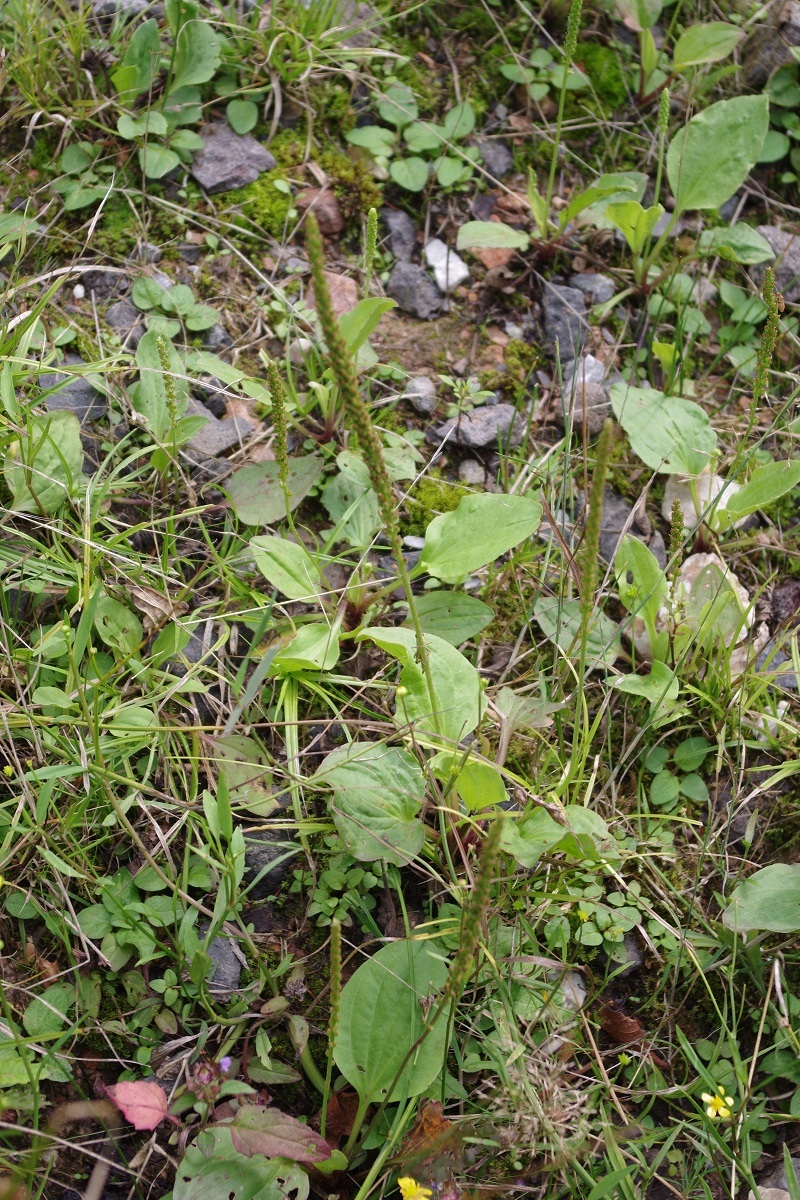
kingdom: Plantae
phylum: Tracheophyta
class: Magnoliopsida
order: Lamiales
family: Plantaginaceae
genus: Plantago
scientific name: Plantago major
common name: Common plantain
